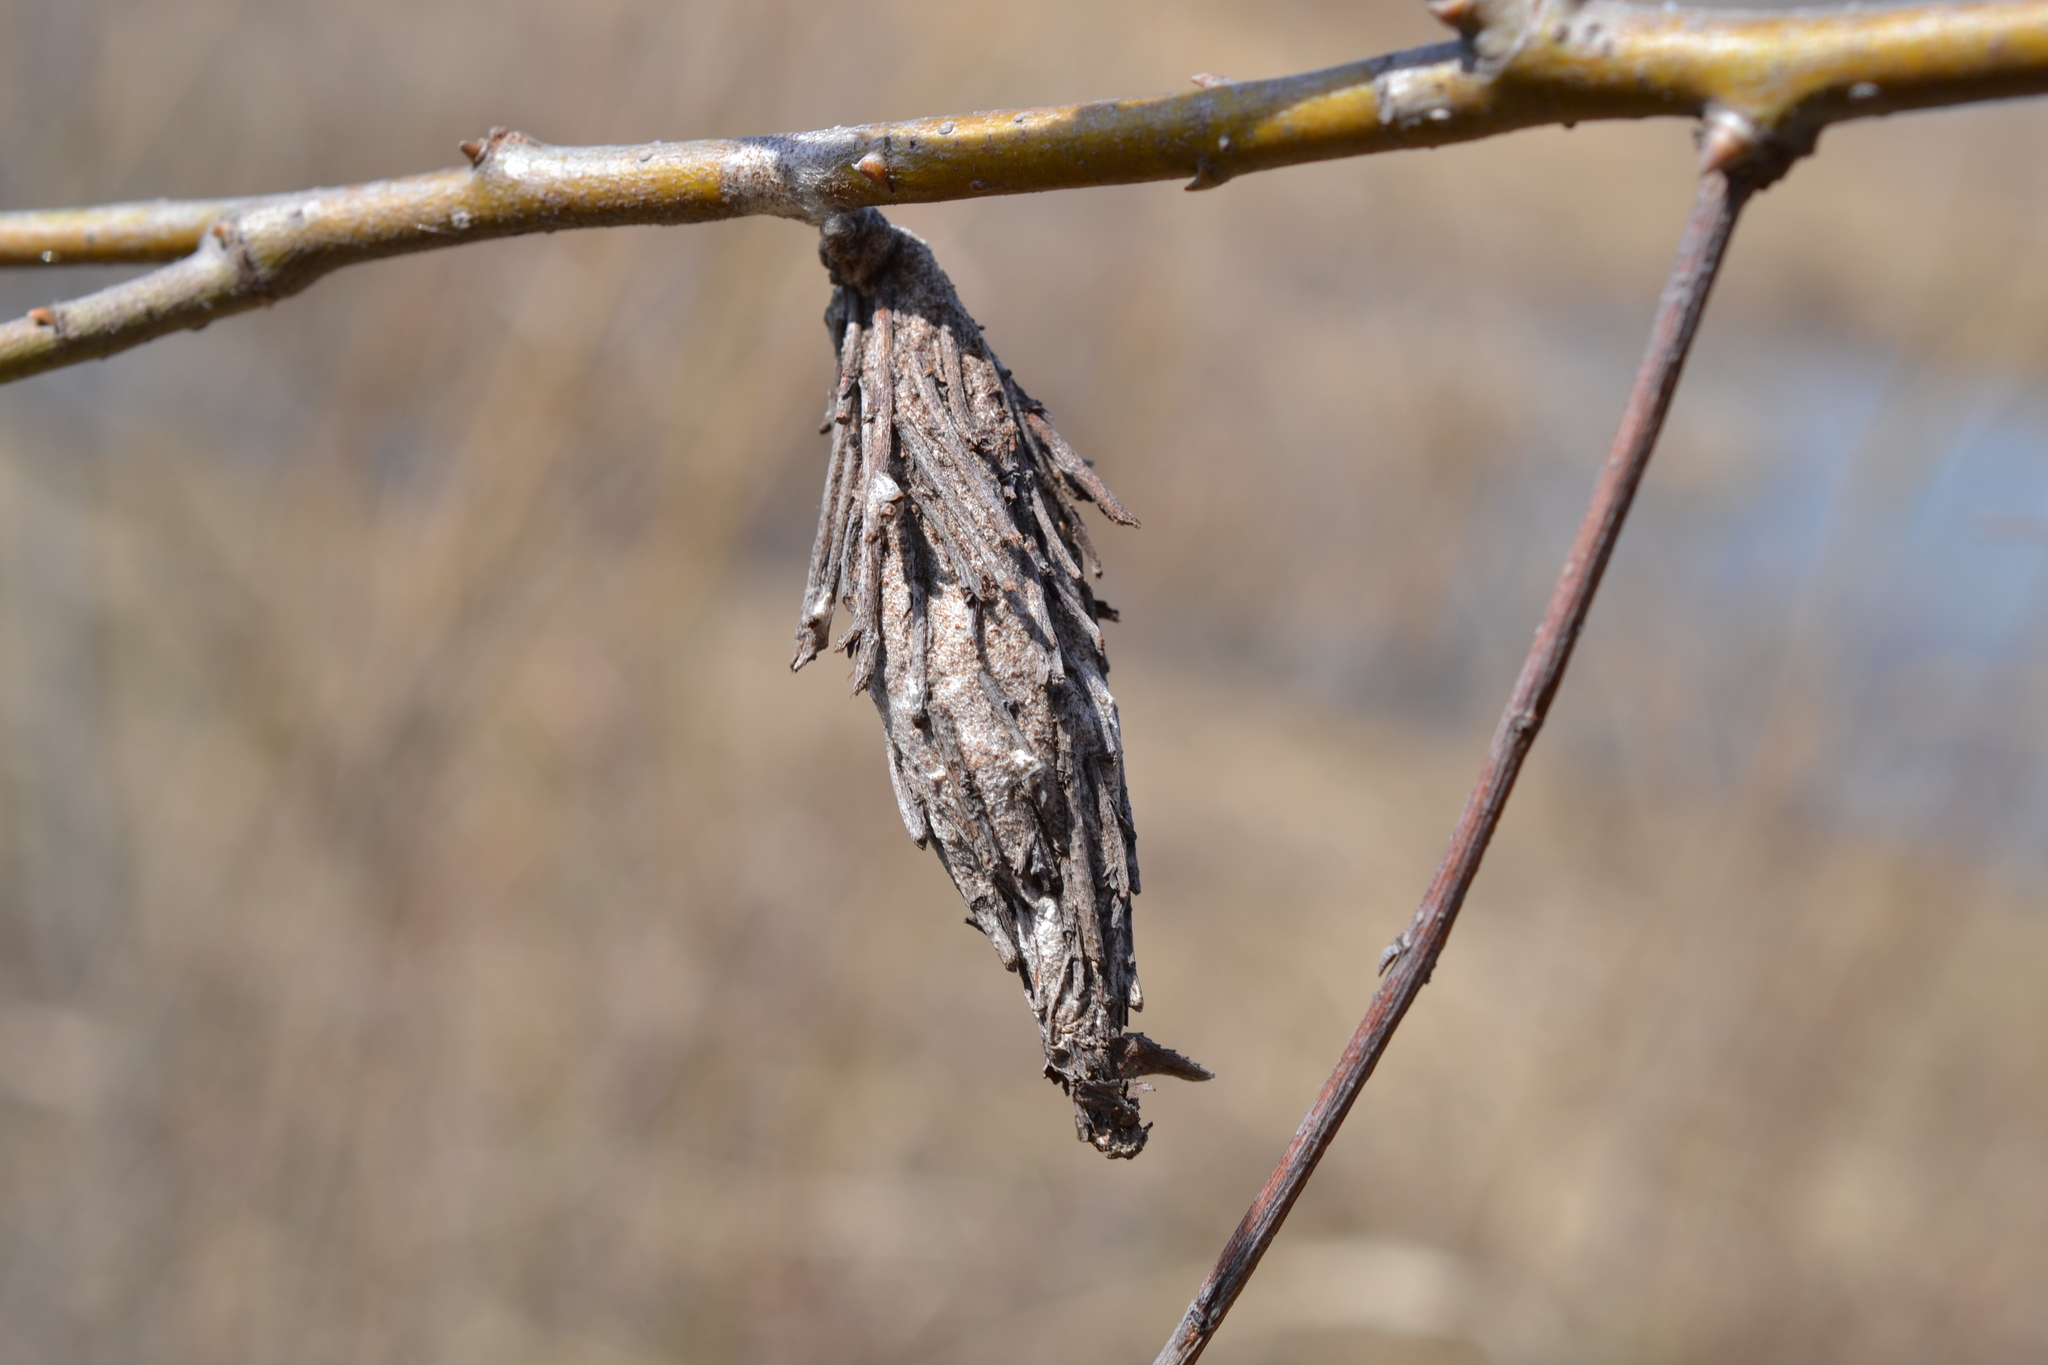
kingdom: Animalia
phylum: Arthropoda
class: Insecta
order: Lepidoptera
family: Psychidae
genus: Thyridopteryx
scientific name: Thyridopteryx ephemeraeformis
